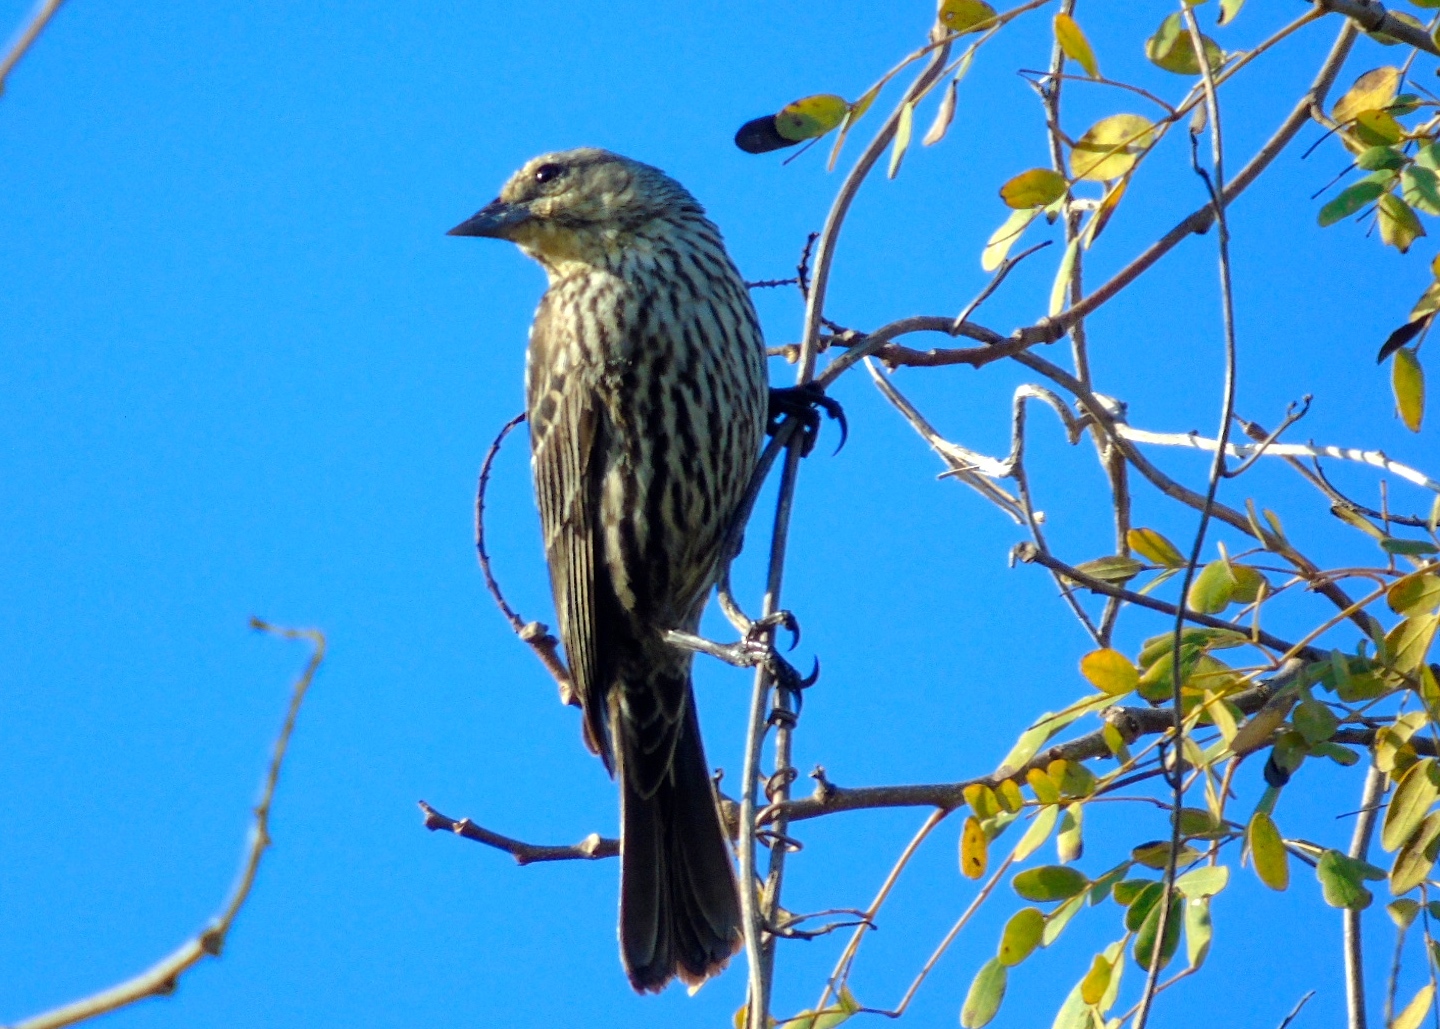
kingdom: Animalia
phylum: Chordata
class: Aves
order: Passeriformes
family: Icteridae
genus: Agelaius
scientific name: Agelaius phoeniceus
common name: Red-winged blackbird
